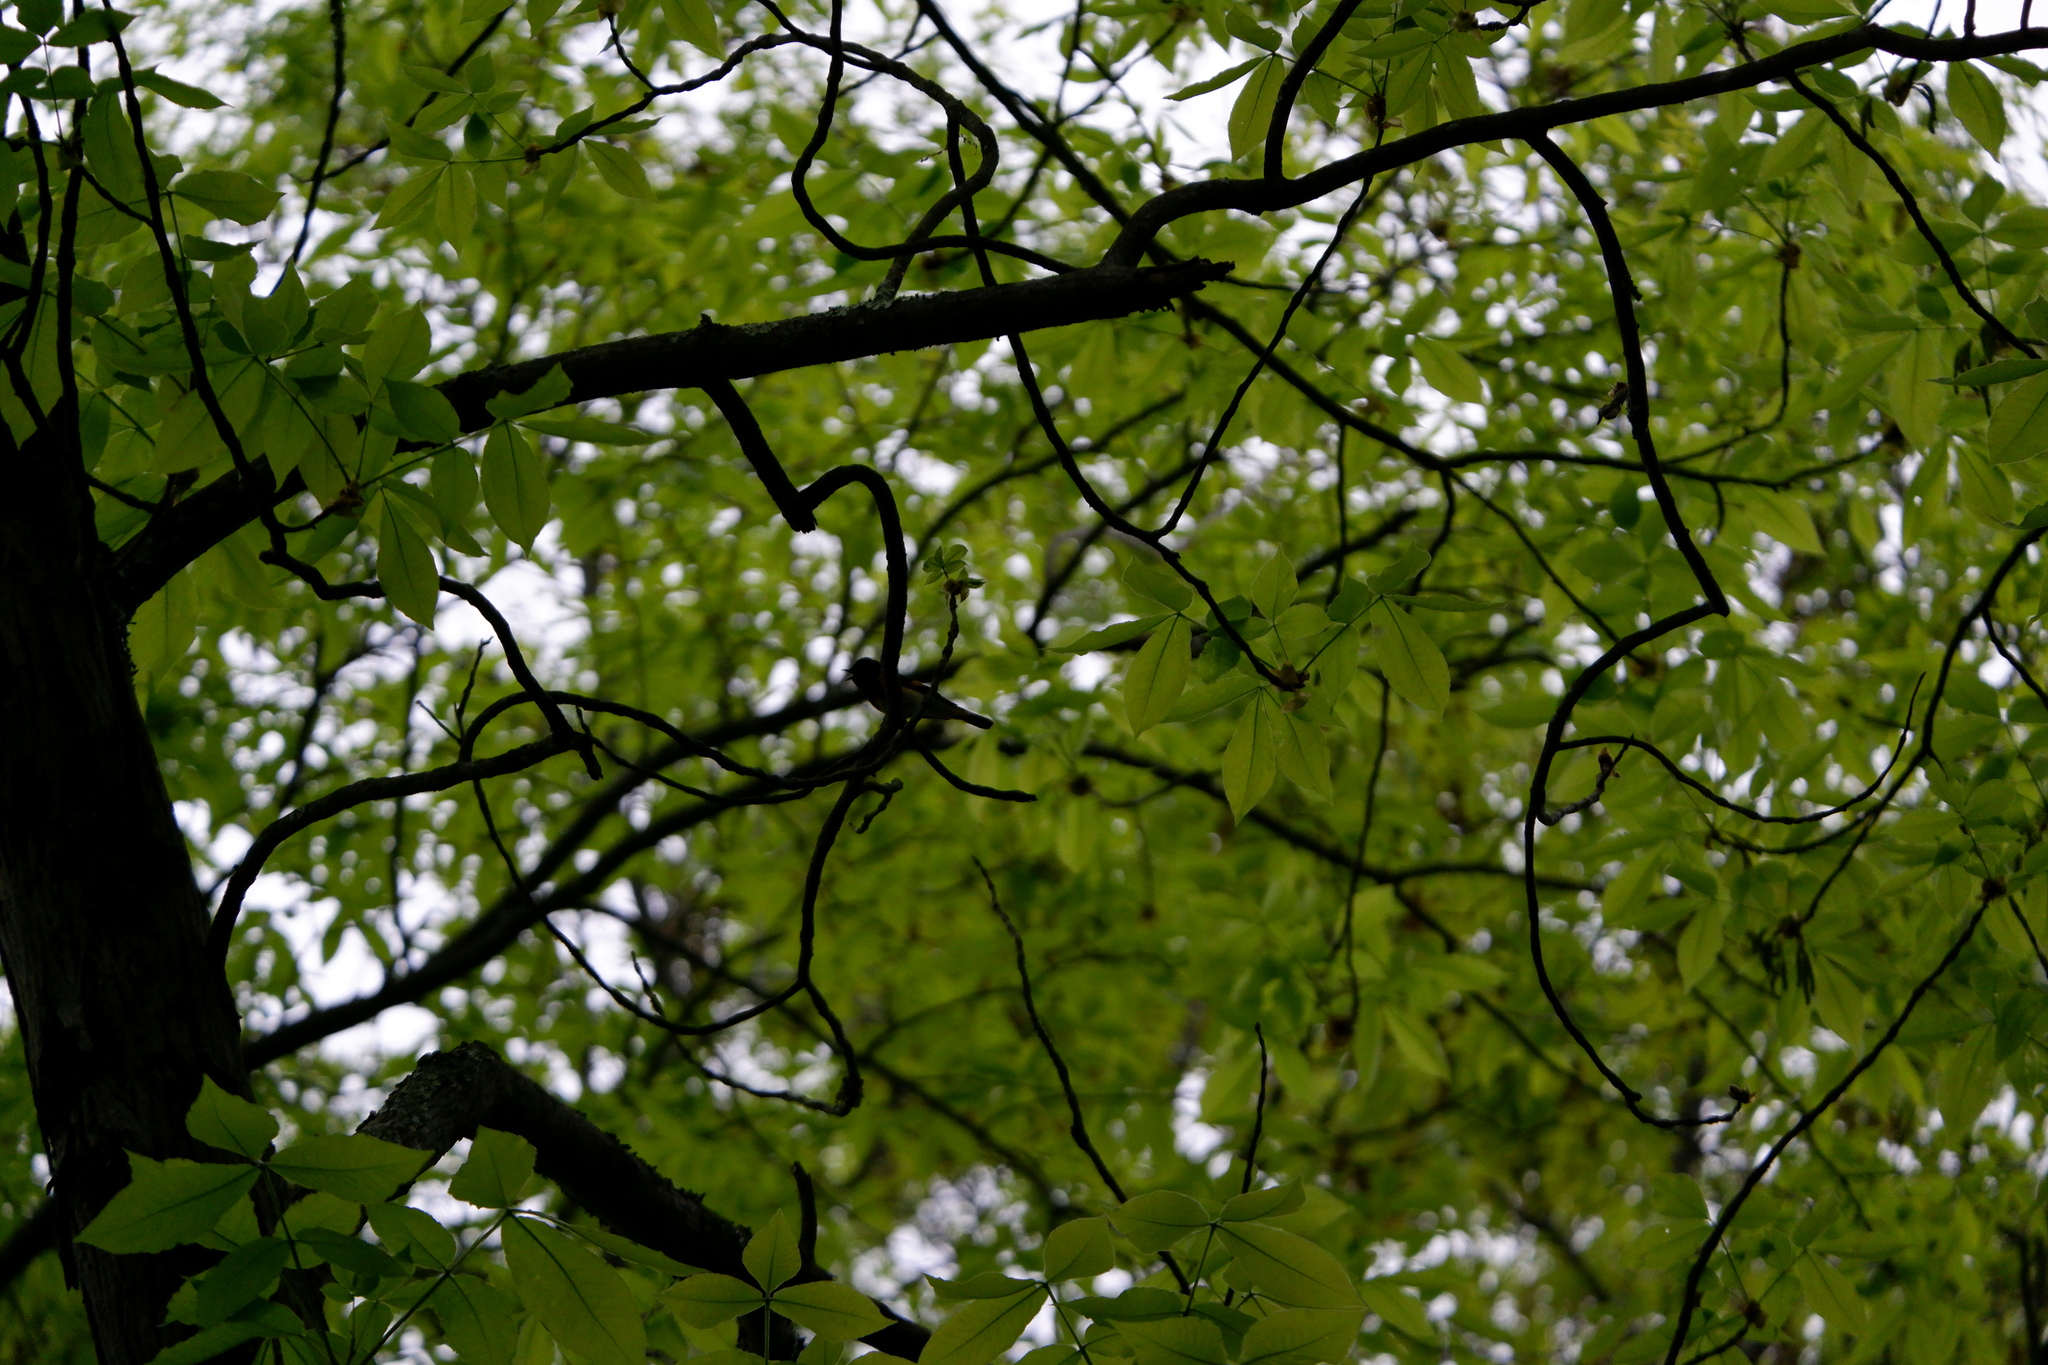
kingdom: Animalia
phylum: Chordata
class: Aves
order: Passeriformes
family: Parulidae
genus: Setophaga
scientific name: Setophaga ruticilla
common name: American redstart
